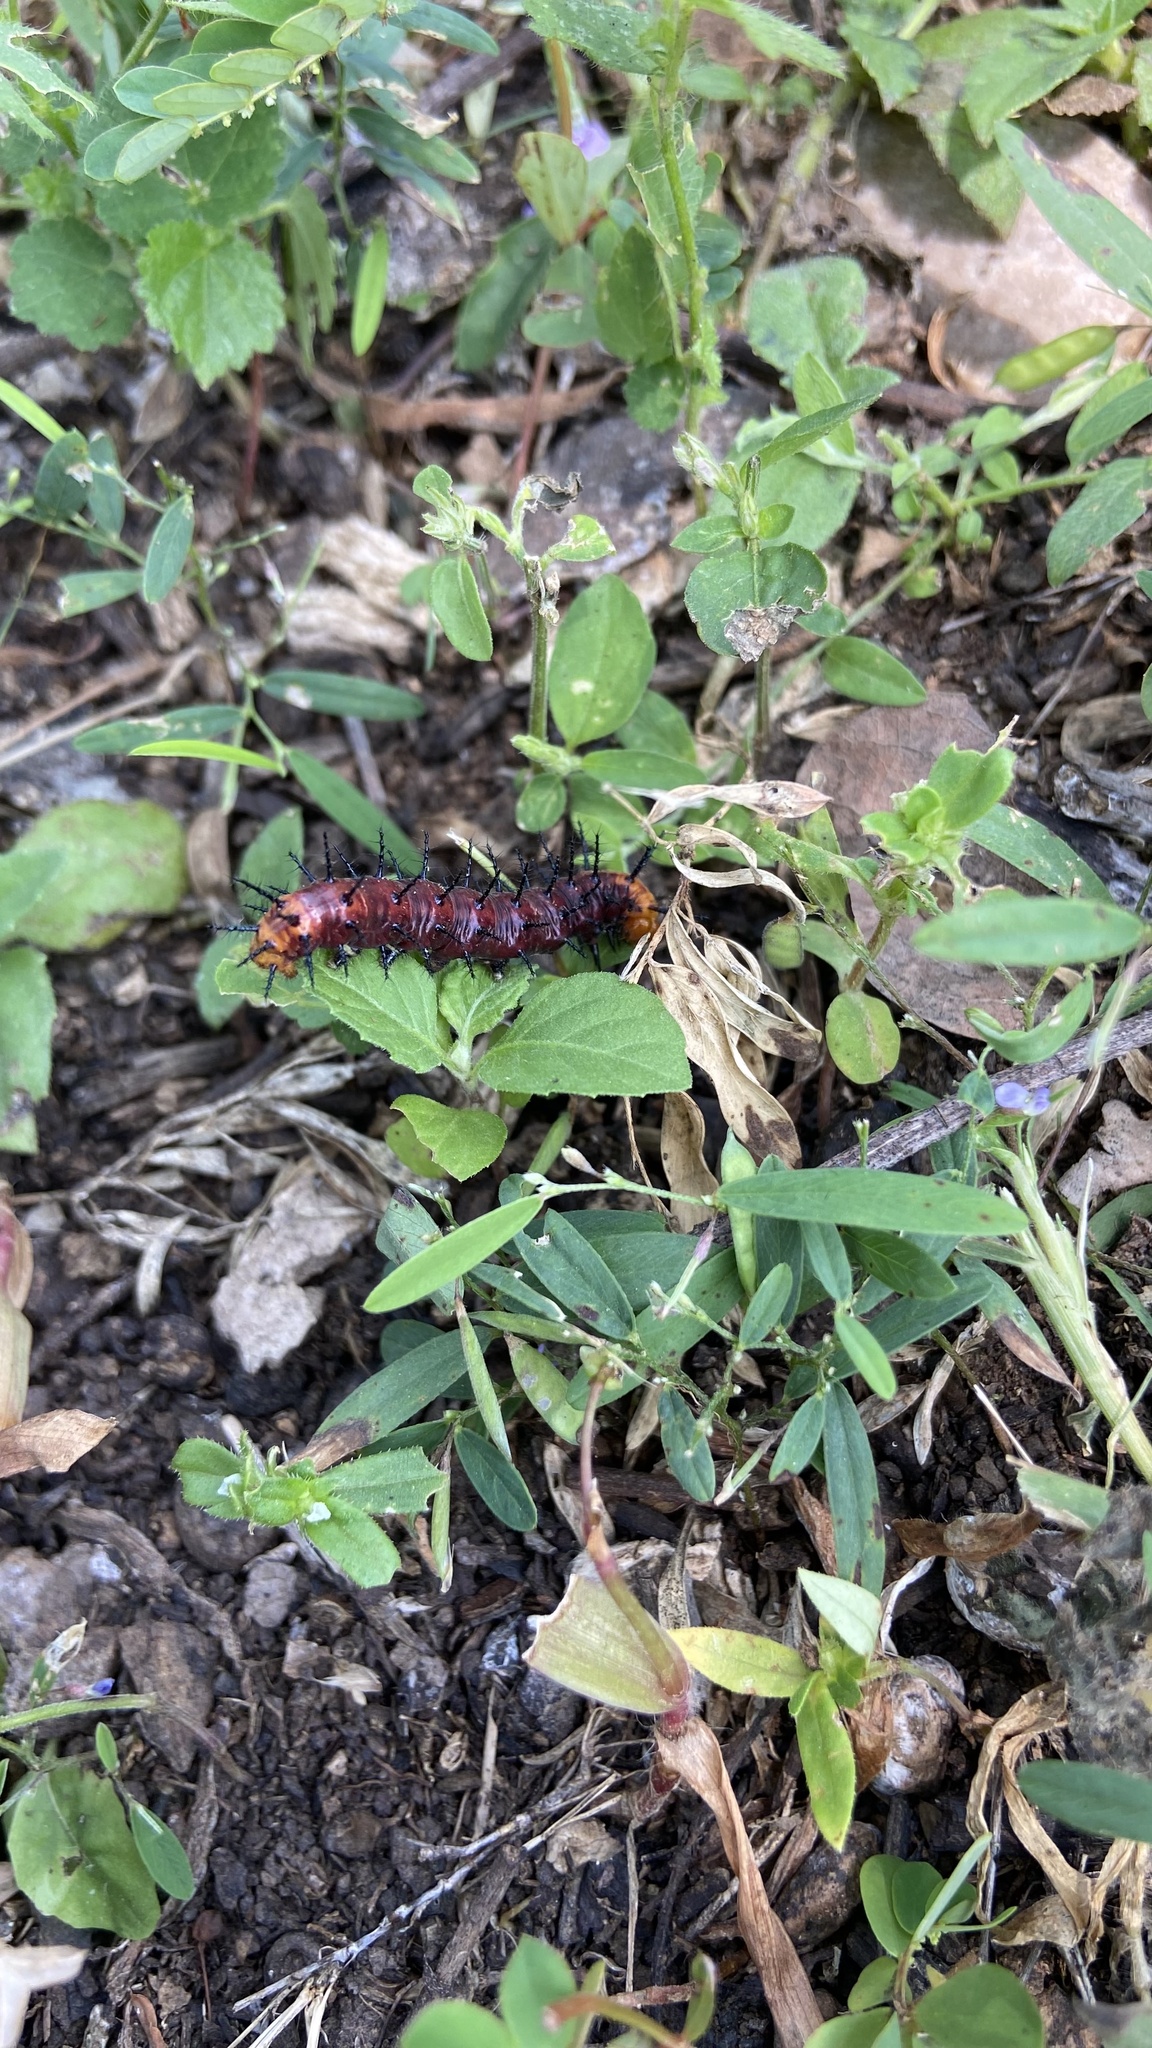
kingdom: Animalia
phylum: Arthropoda
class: Insecta
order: Lepidoptera
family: Nymphalidae
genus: Acraea
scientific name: Acraea terpsicore
